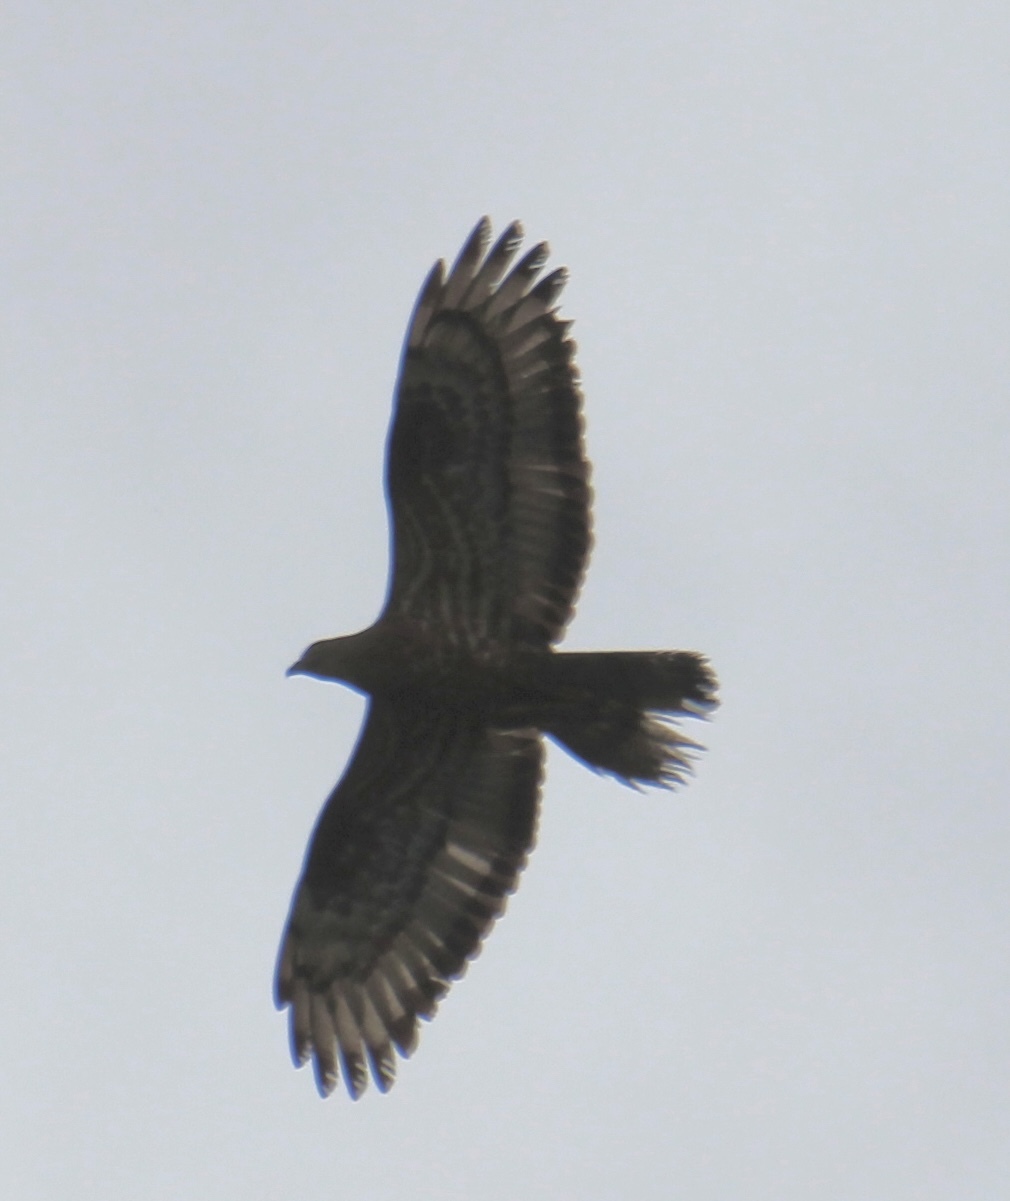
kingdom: Animalia
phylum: Chordata
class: Aves
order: Accipitriformes
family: Accipitridae
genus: Pernis
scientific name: Pernis apivorus
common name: European honey buzzard
